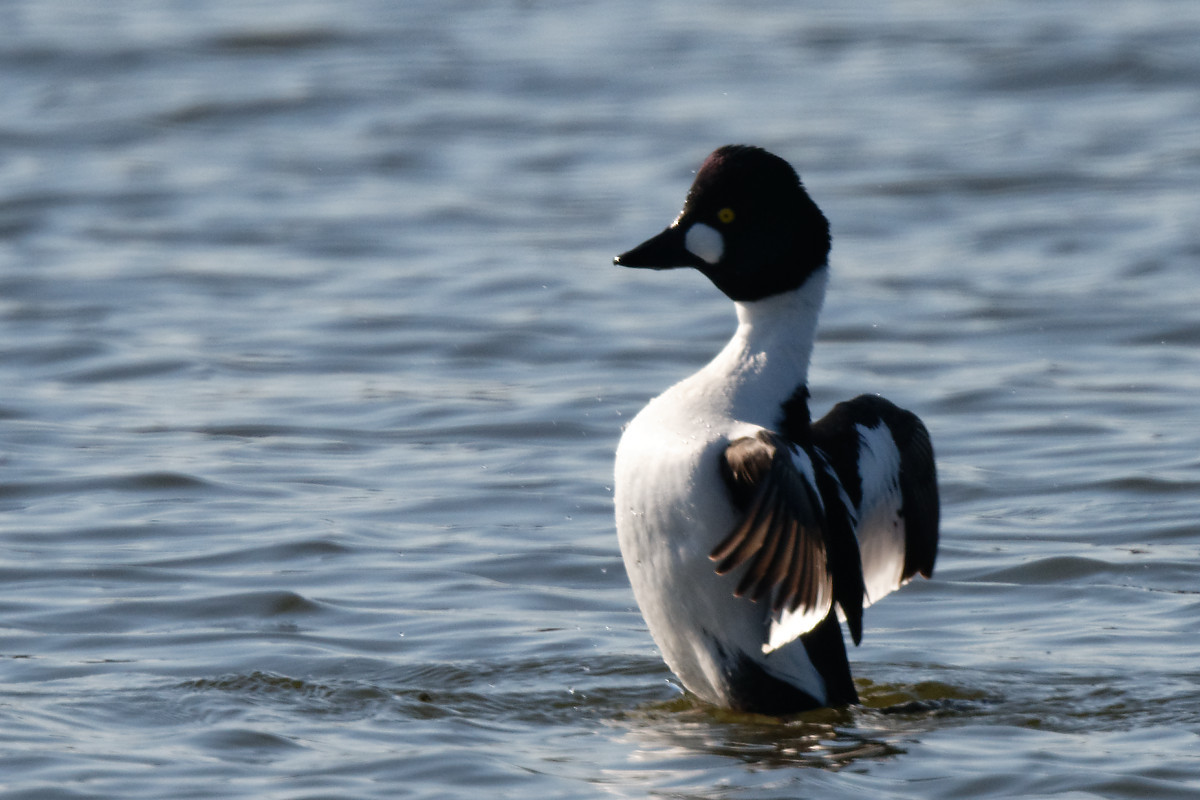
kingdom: Animalia
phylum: Chordata
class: Aves
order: Anseriformes
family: Anatidae
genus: Bucephala
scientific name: Bucephala clangula
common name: Common goldeneye
